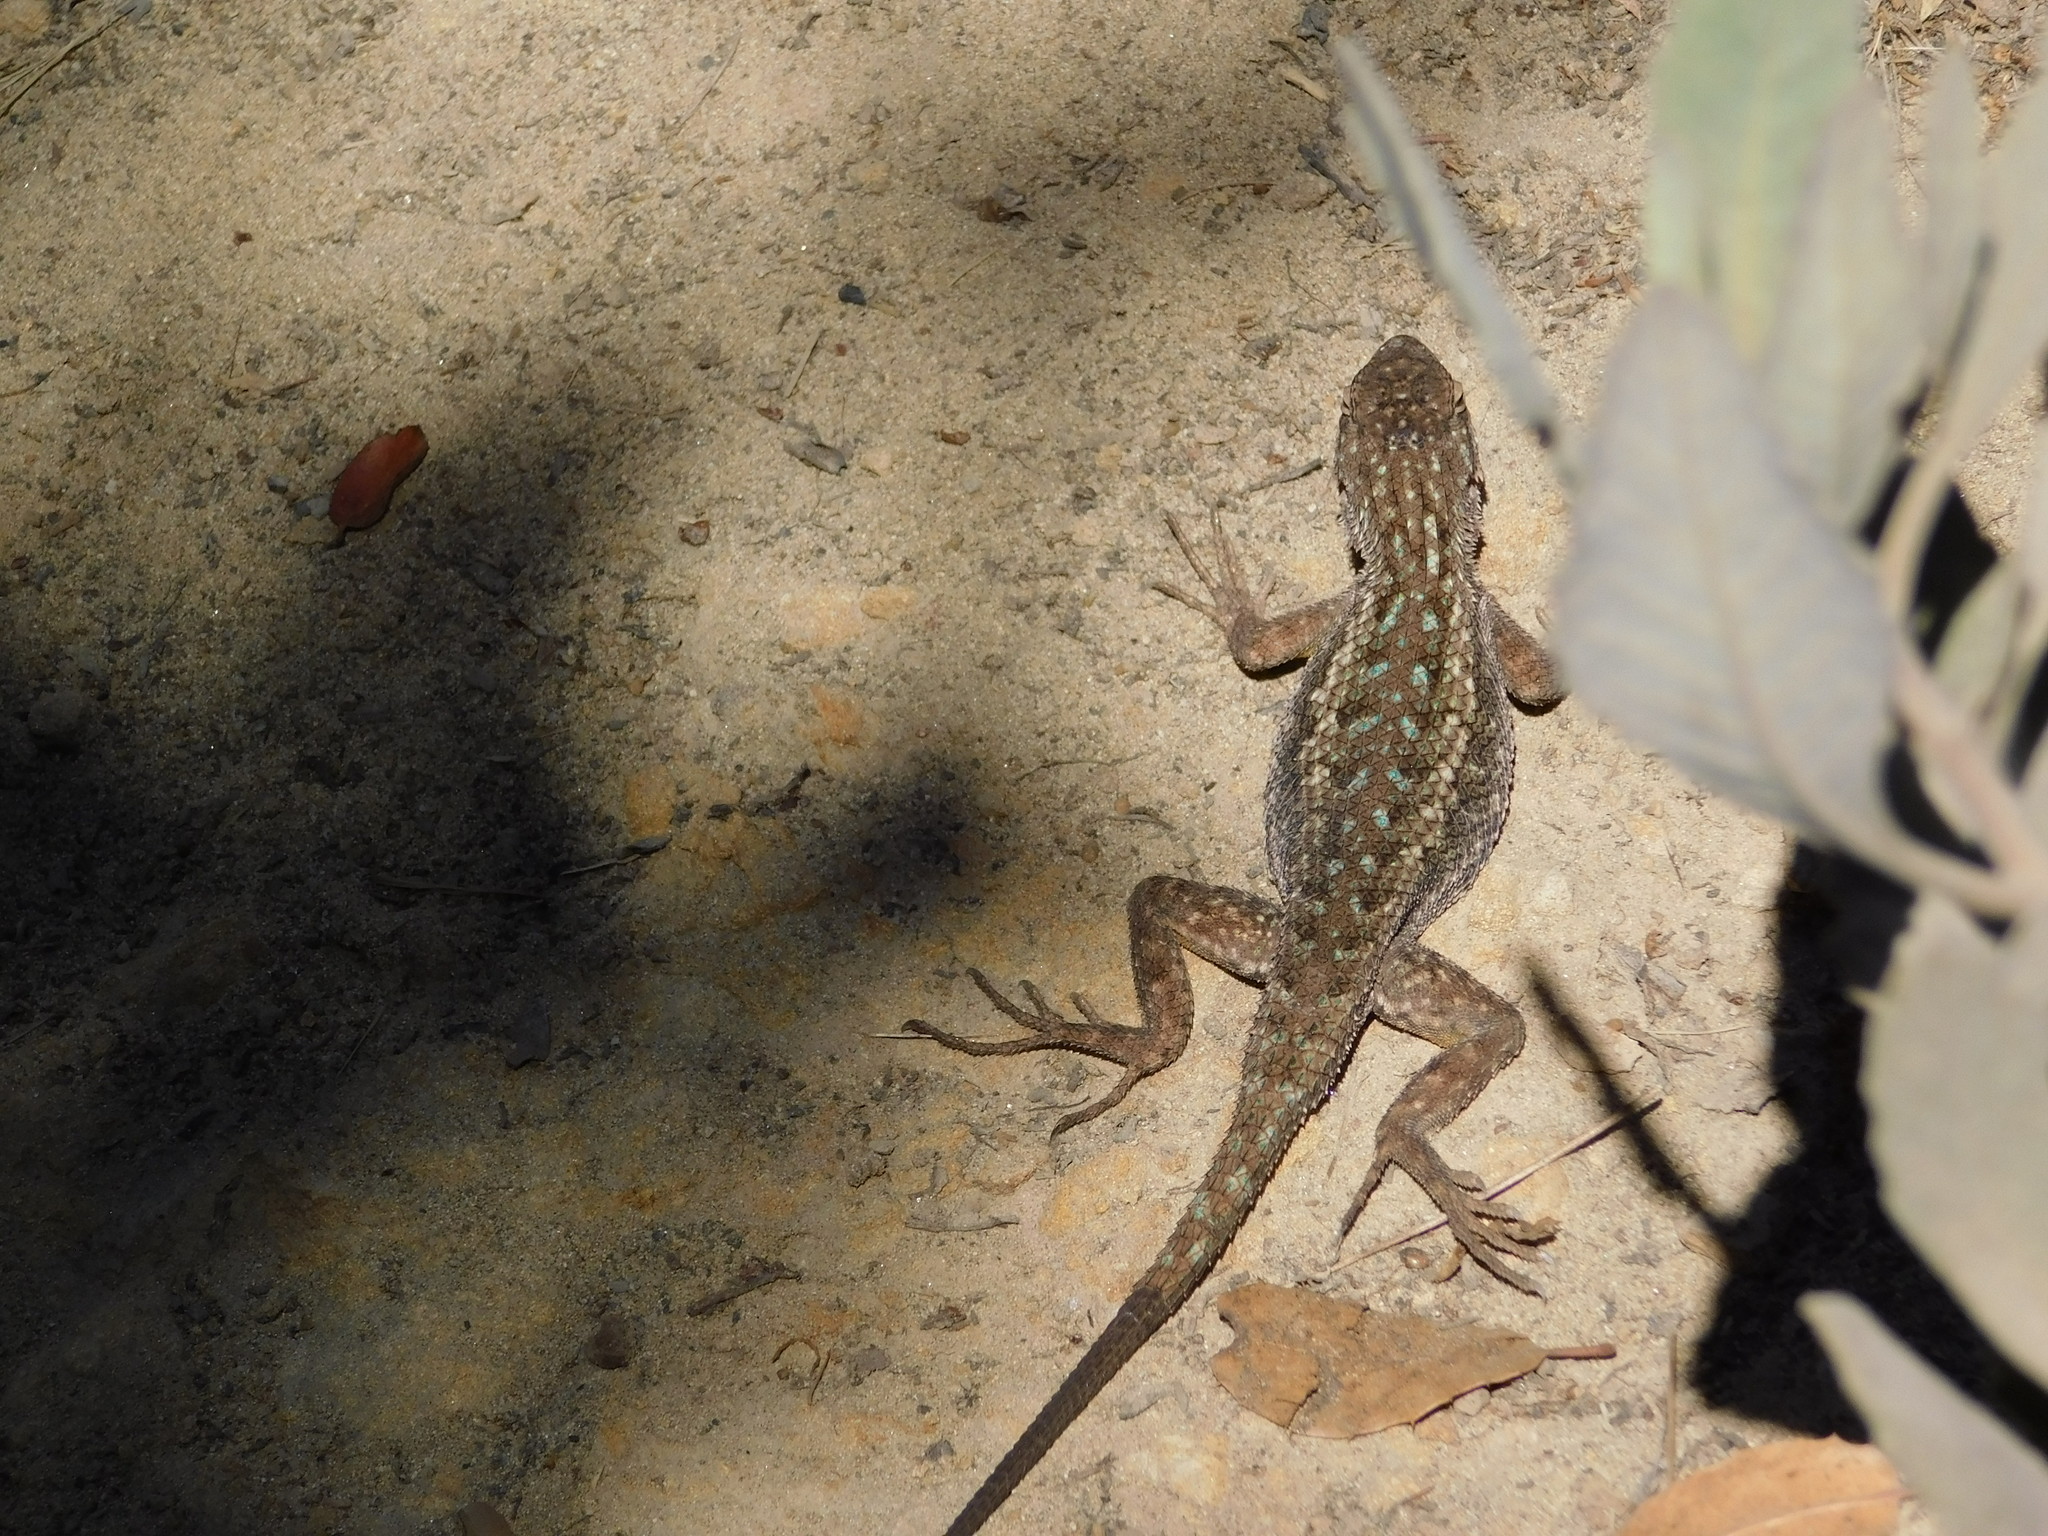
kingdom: Animalia
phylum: Chordata
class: Squamata
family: Phrynosomatidae
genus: Sceloporus
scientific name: Sceloporus occidentalis
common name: Western fence lizard
